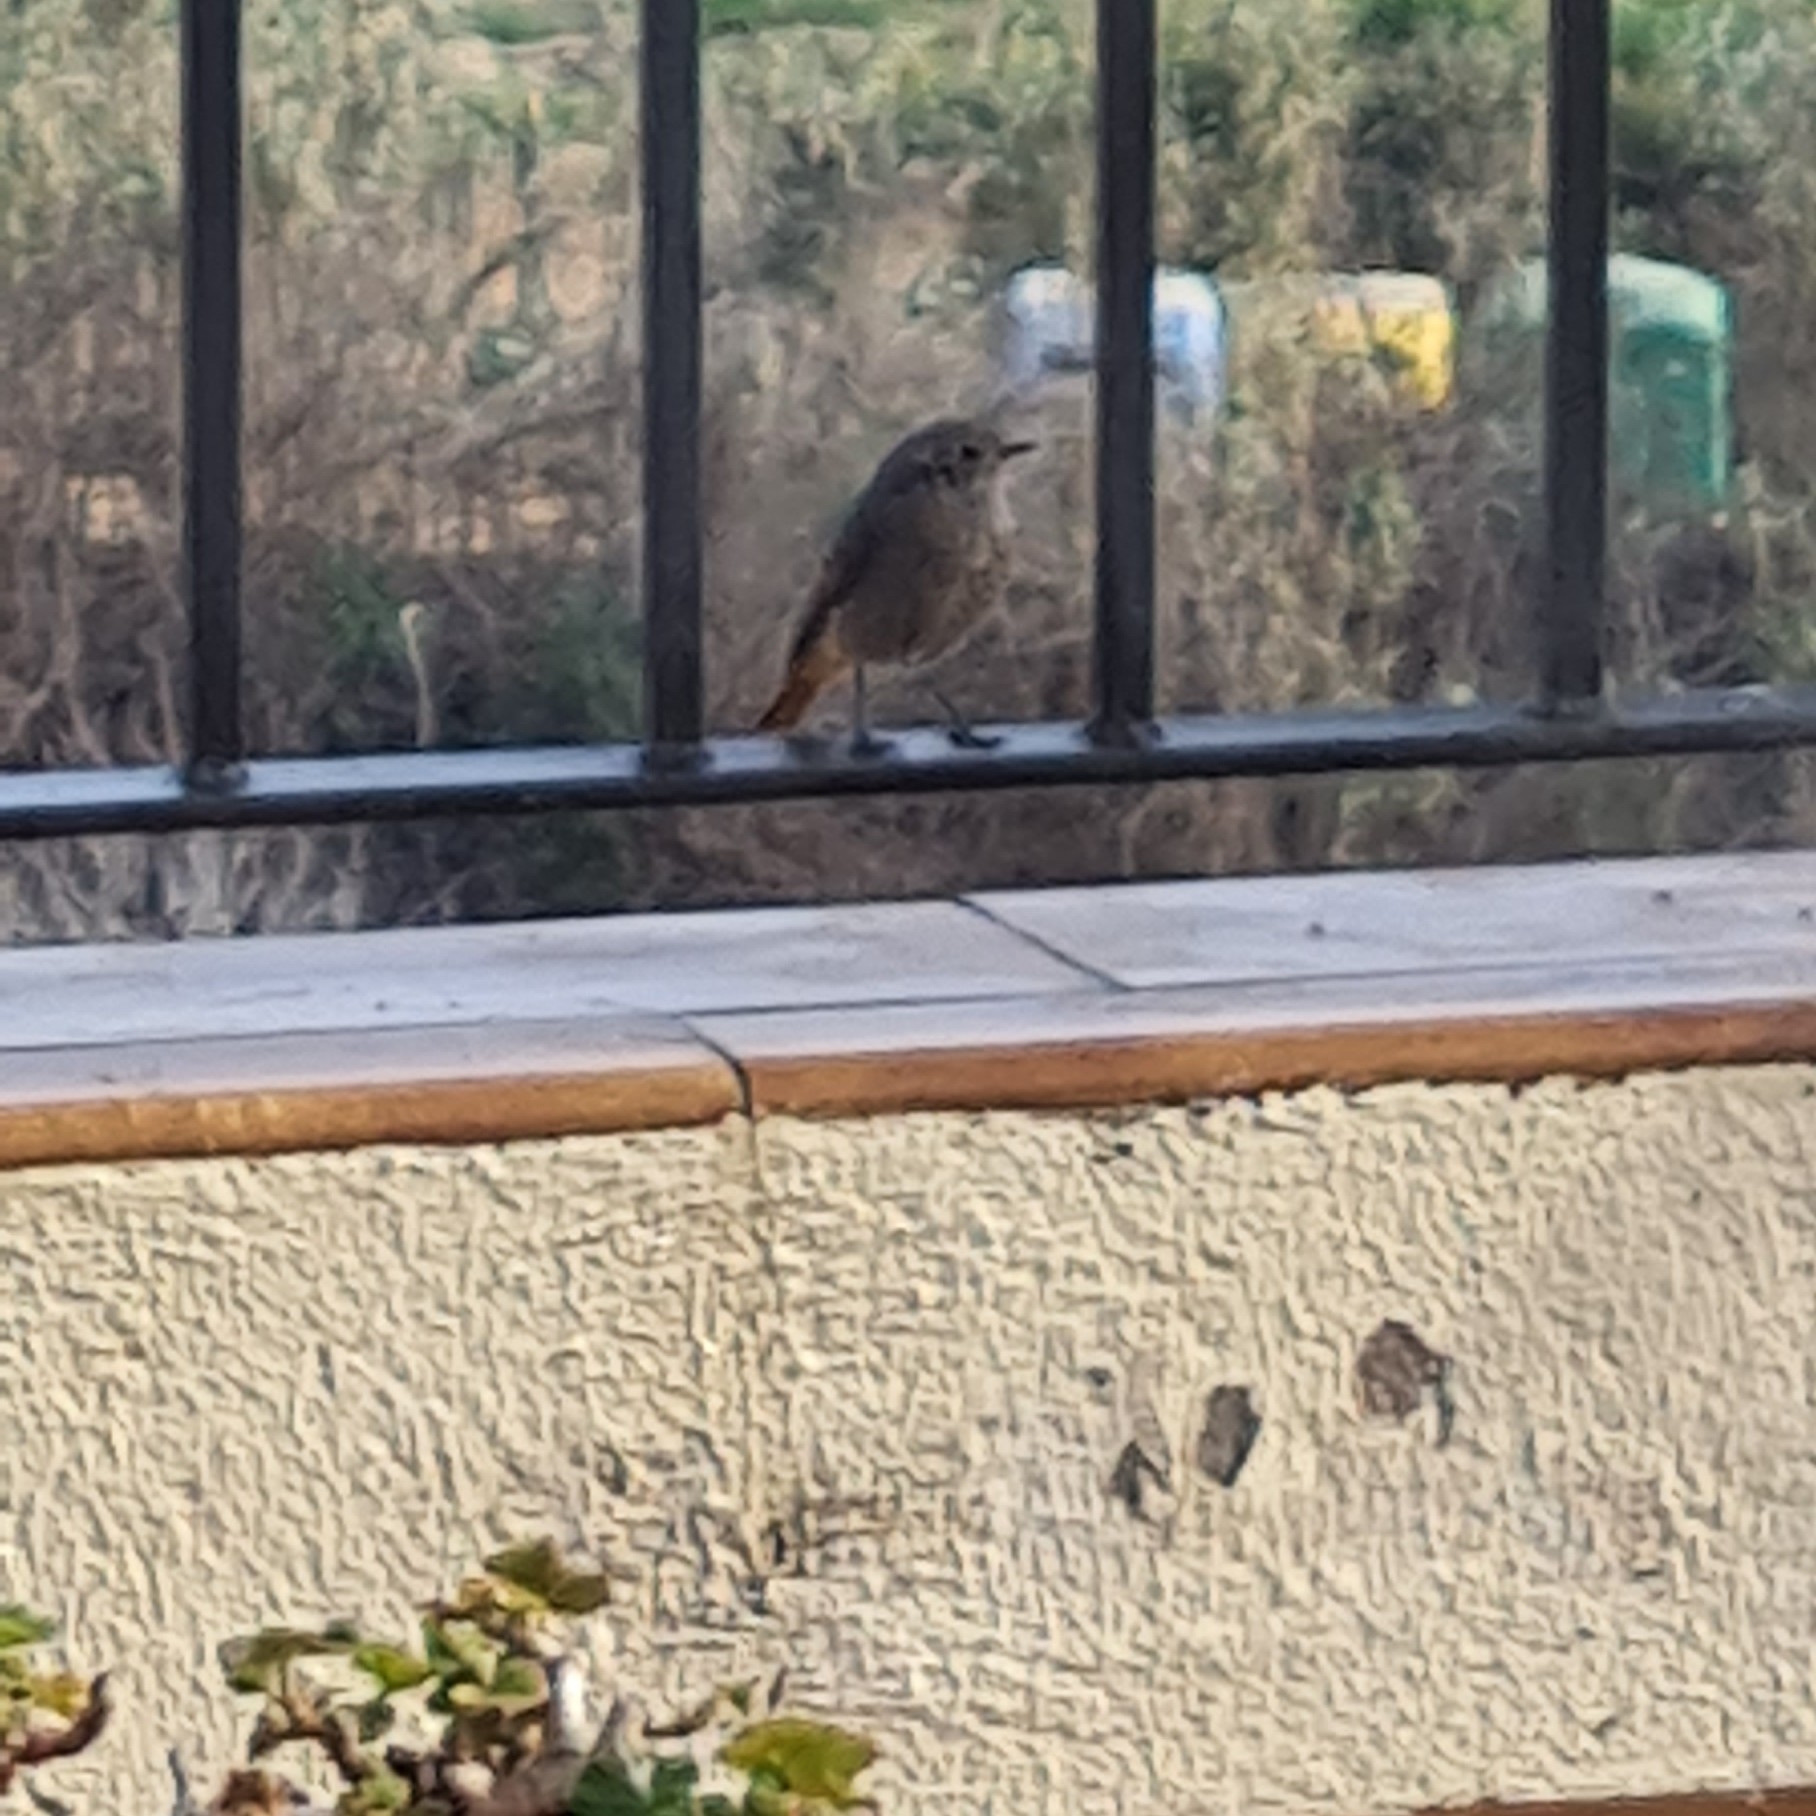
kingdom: Animalia
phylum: Chordata
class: Aves
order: Passeriformes
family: Muscicapidae
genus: Phoenicurus
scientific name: Phoenicurus ochruros
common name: Black redstart
